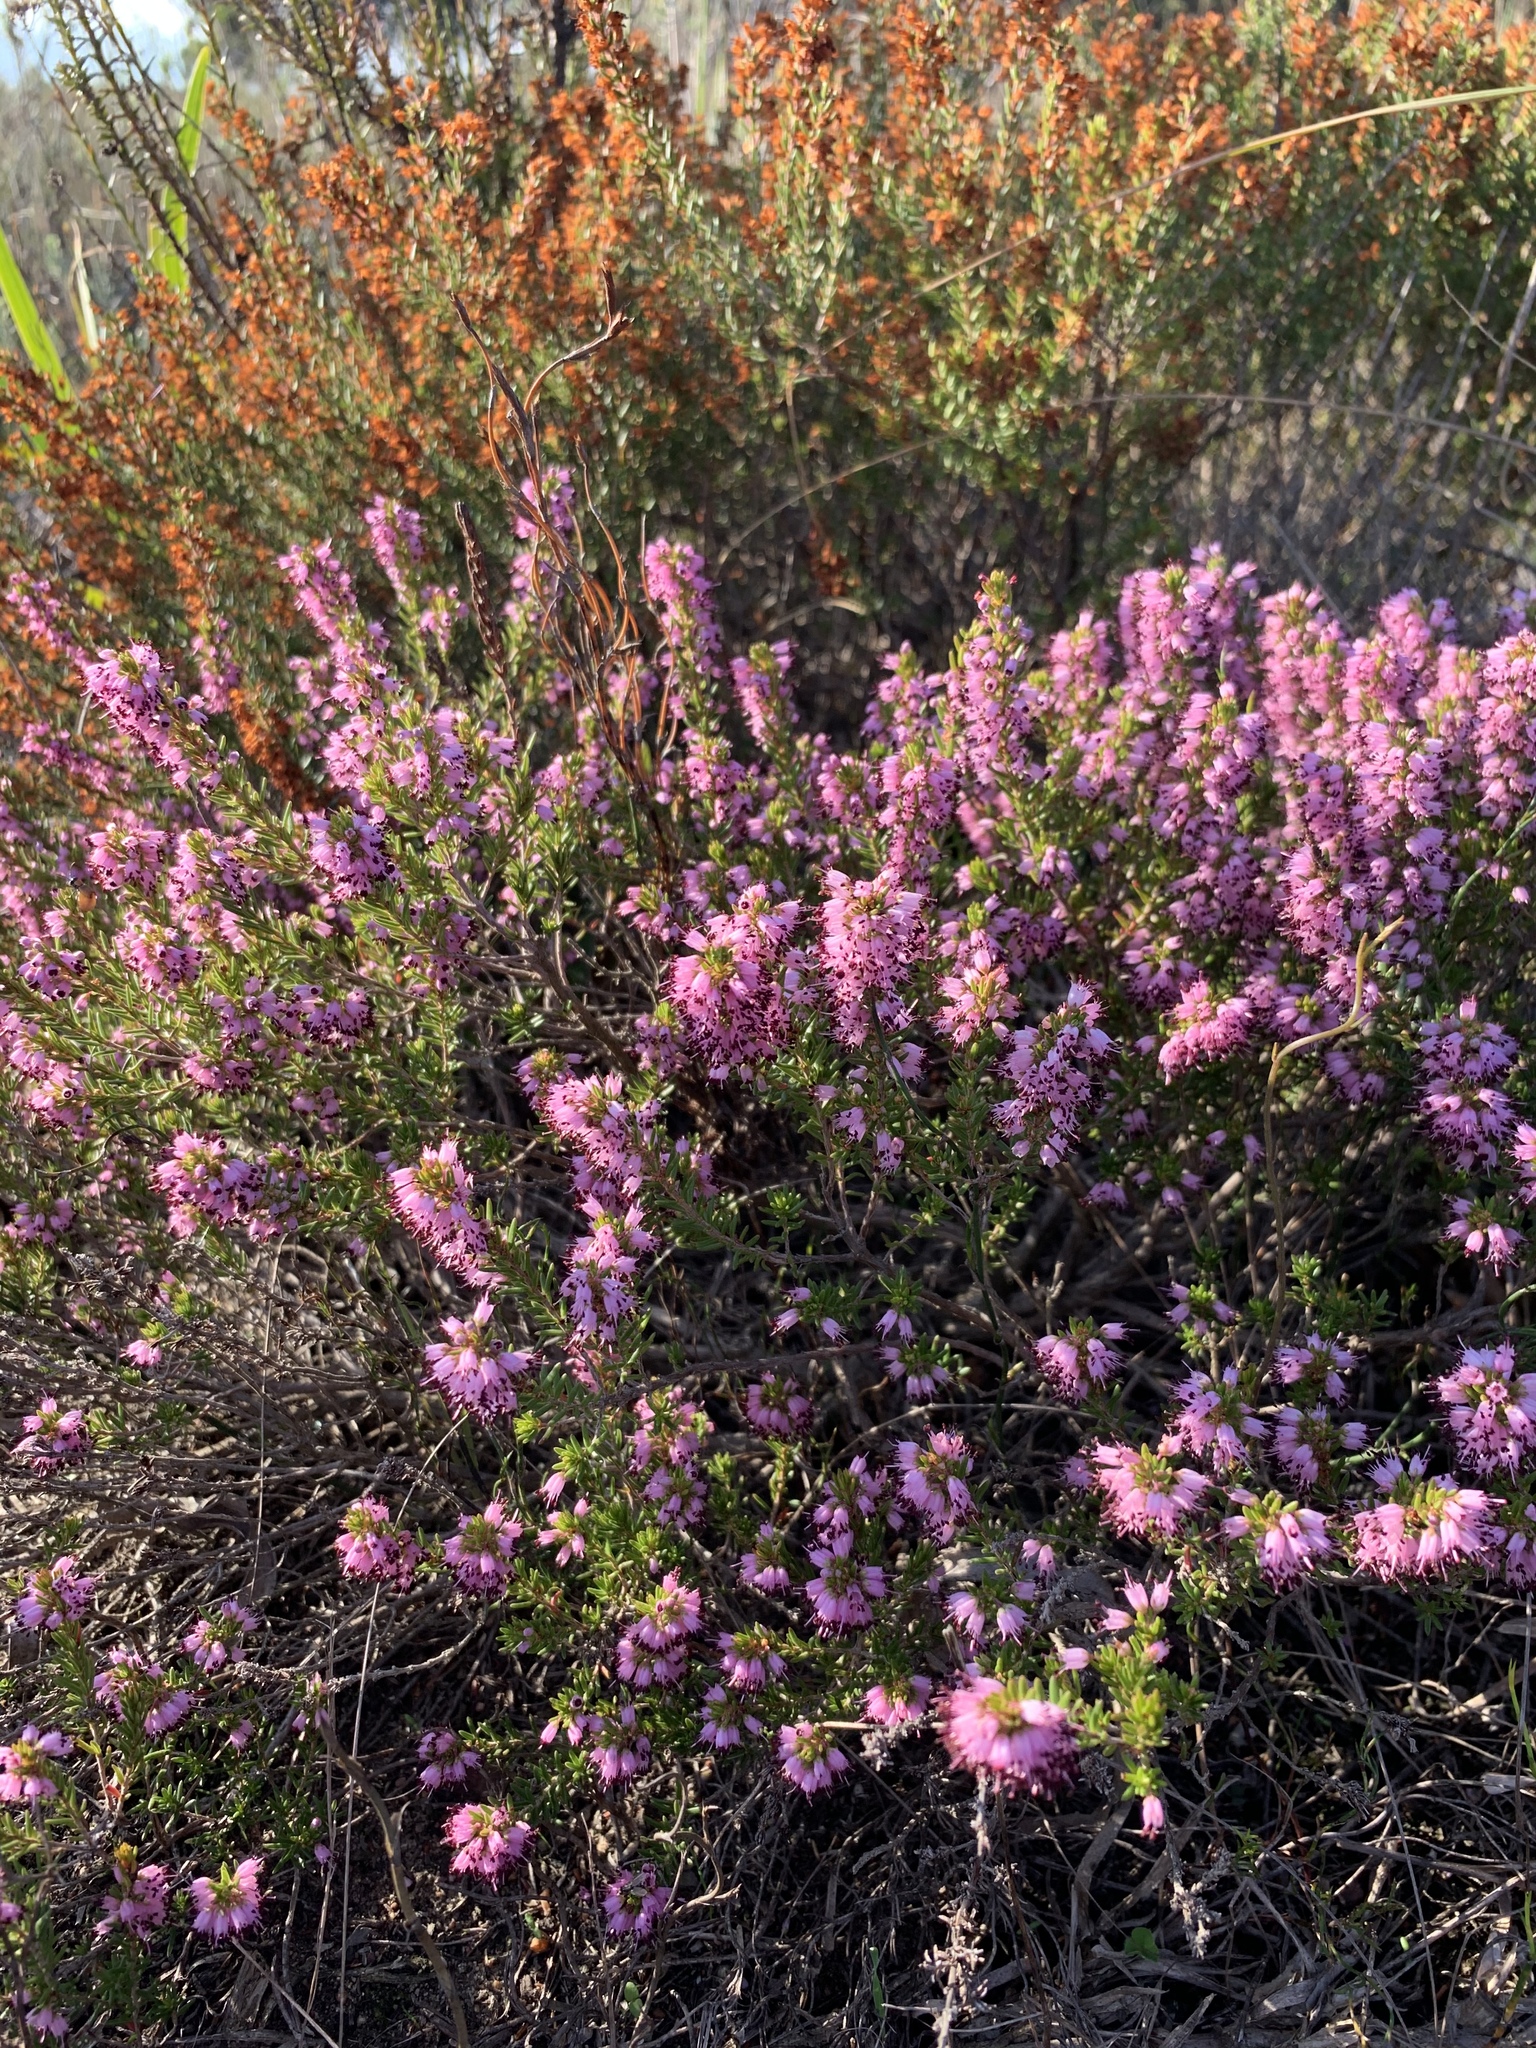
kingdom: Plantae
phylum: Tracheophyta
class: Magnoliopsida
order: Ericales
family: Ericaceae
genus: Erica
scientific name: Erica nudiflora
